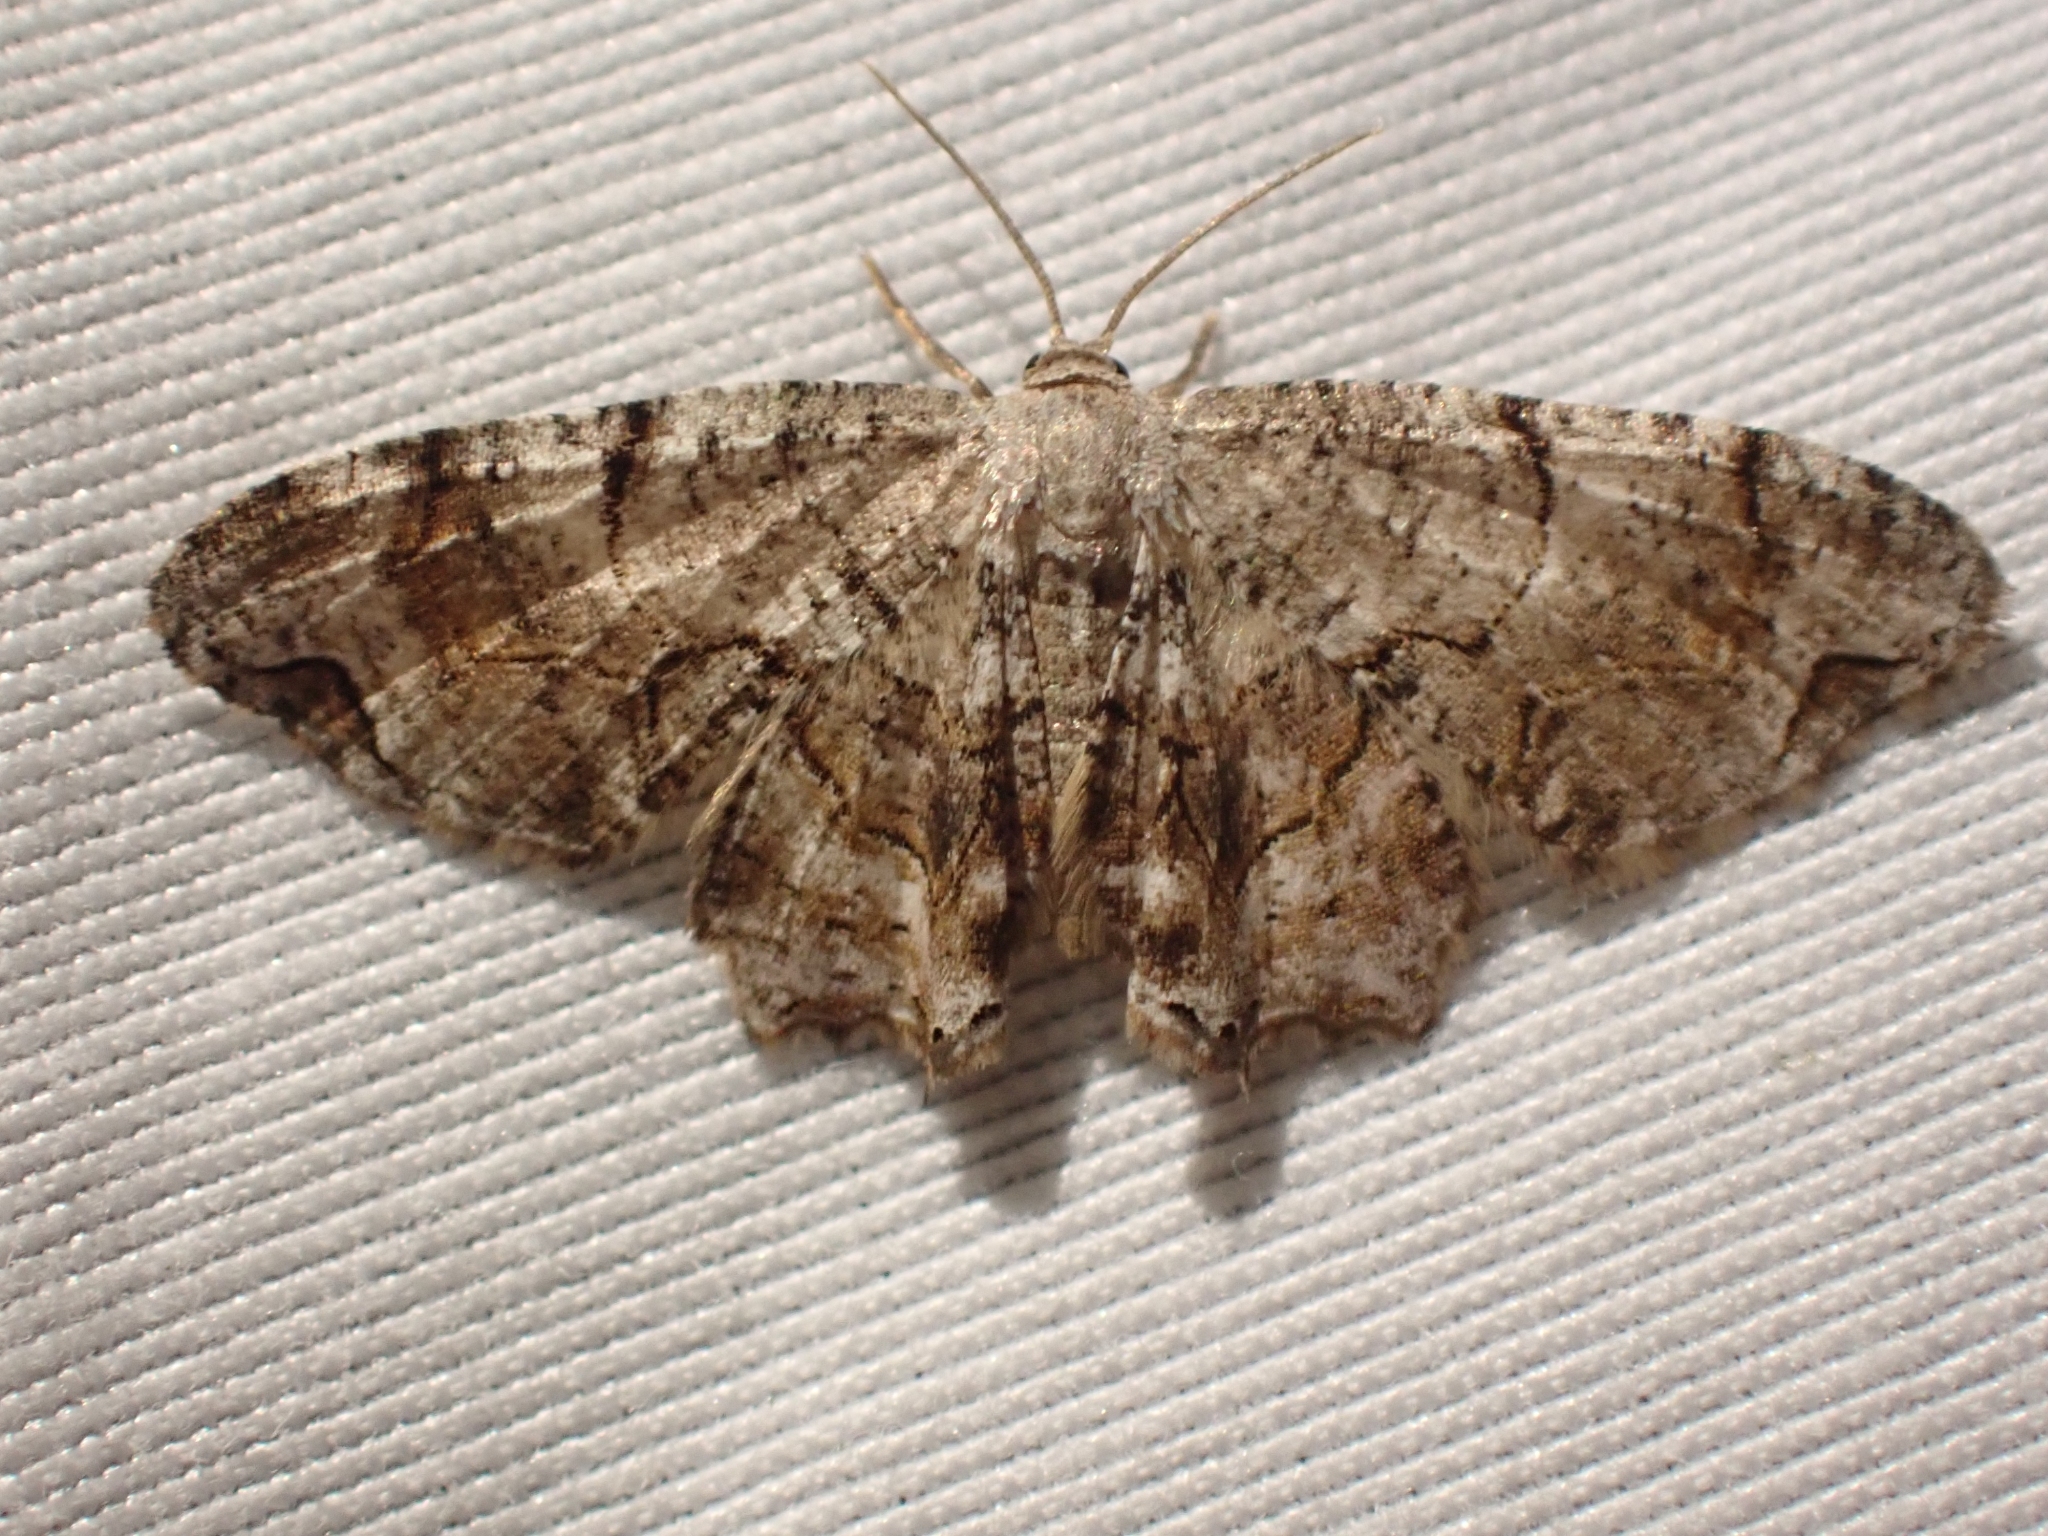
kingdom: Animalia
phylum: Arthropoda
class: Insecta
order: Lepidoptera
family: Uraniidae
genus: Epiplema
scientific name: Epiplema Callizzia amorata
